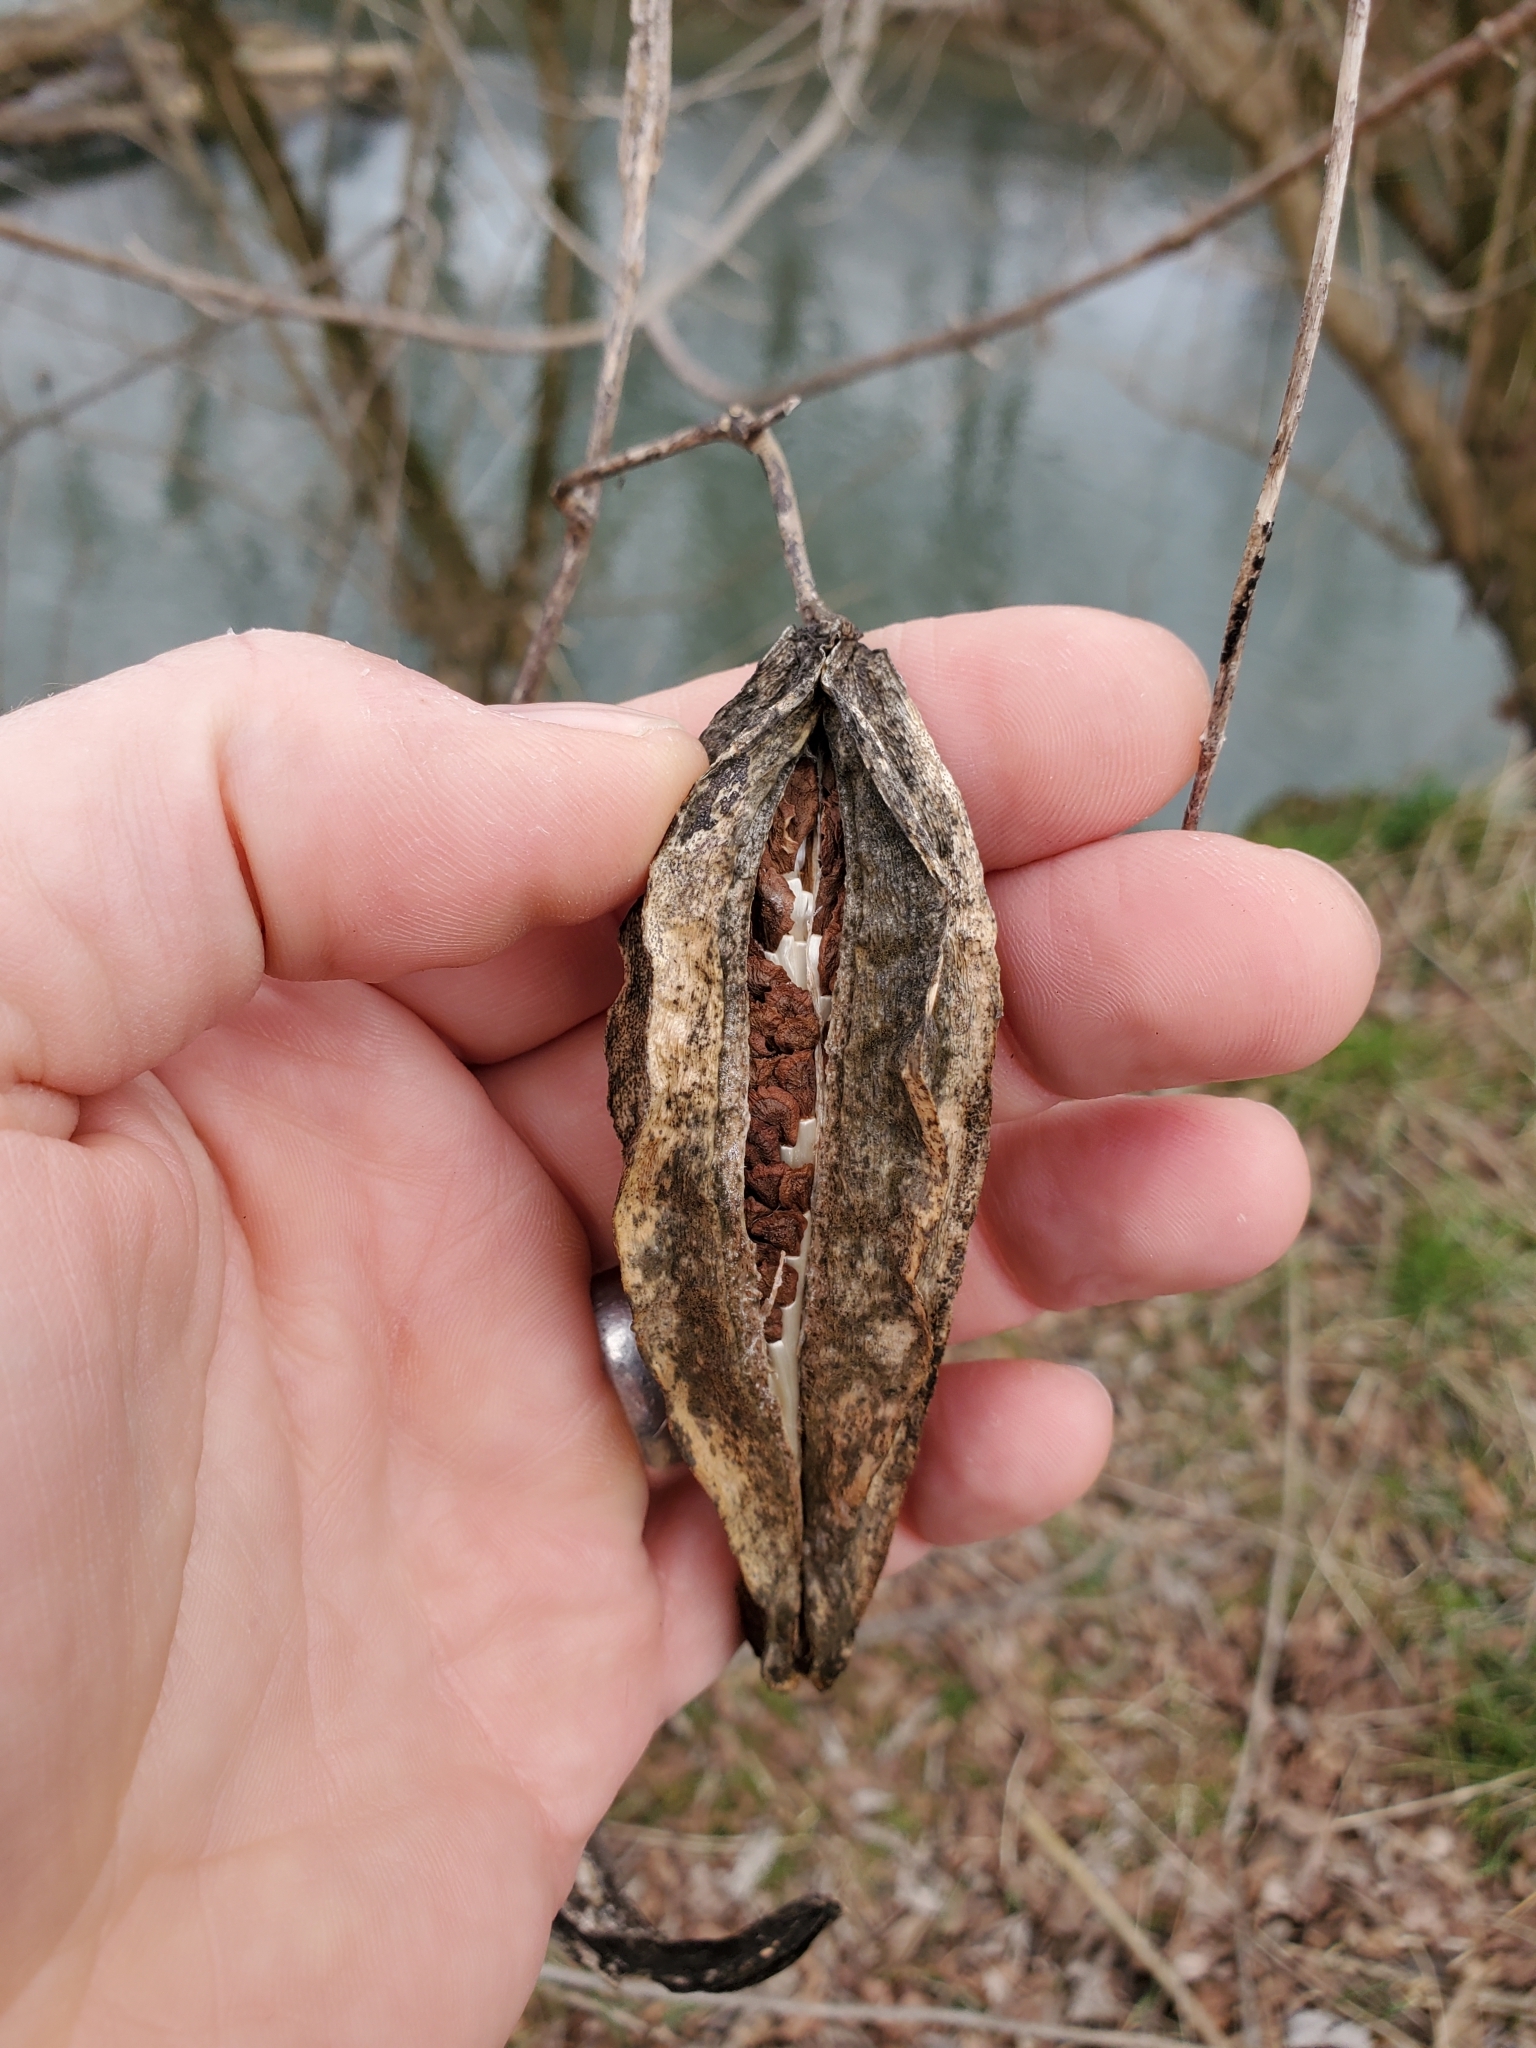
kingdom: Plantae
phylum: Tracheophyta
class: Magnoliopsida
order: Gentianales
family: Apocynaceae
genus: Gonolobus
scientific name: Gonolobus suberosus
